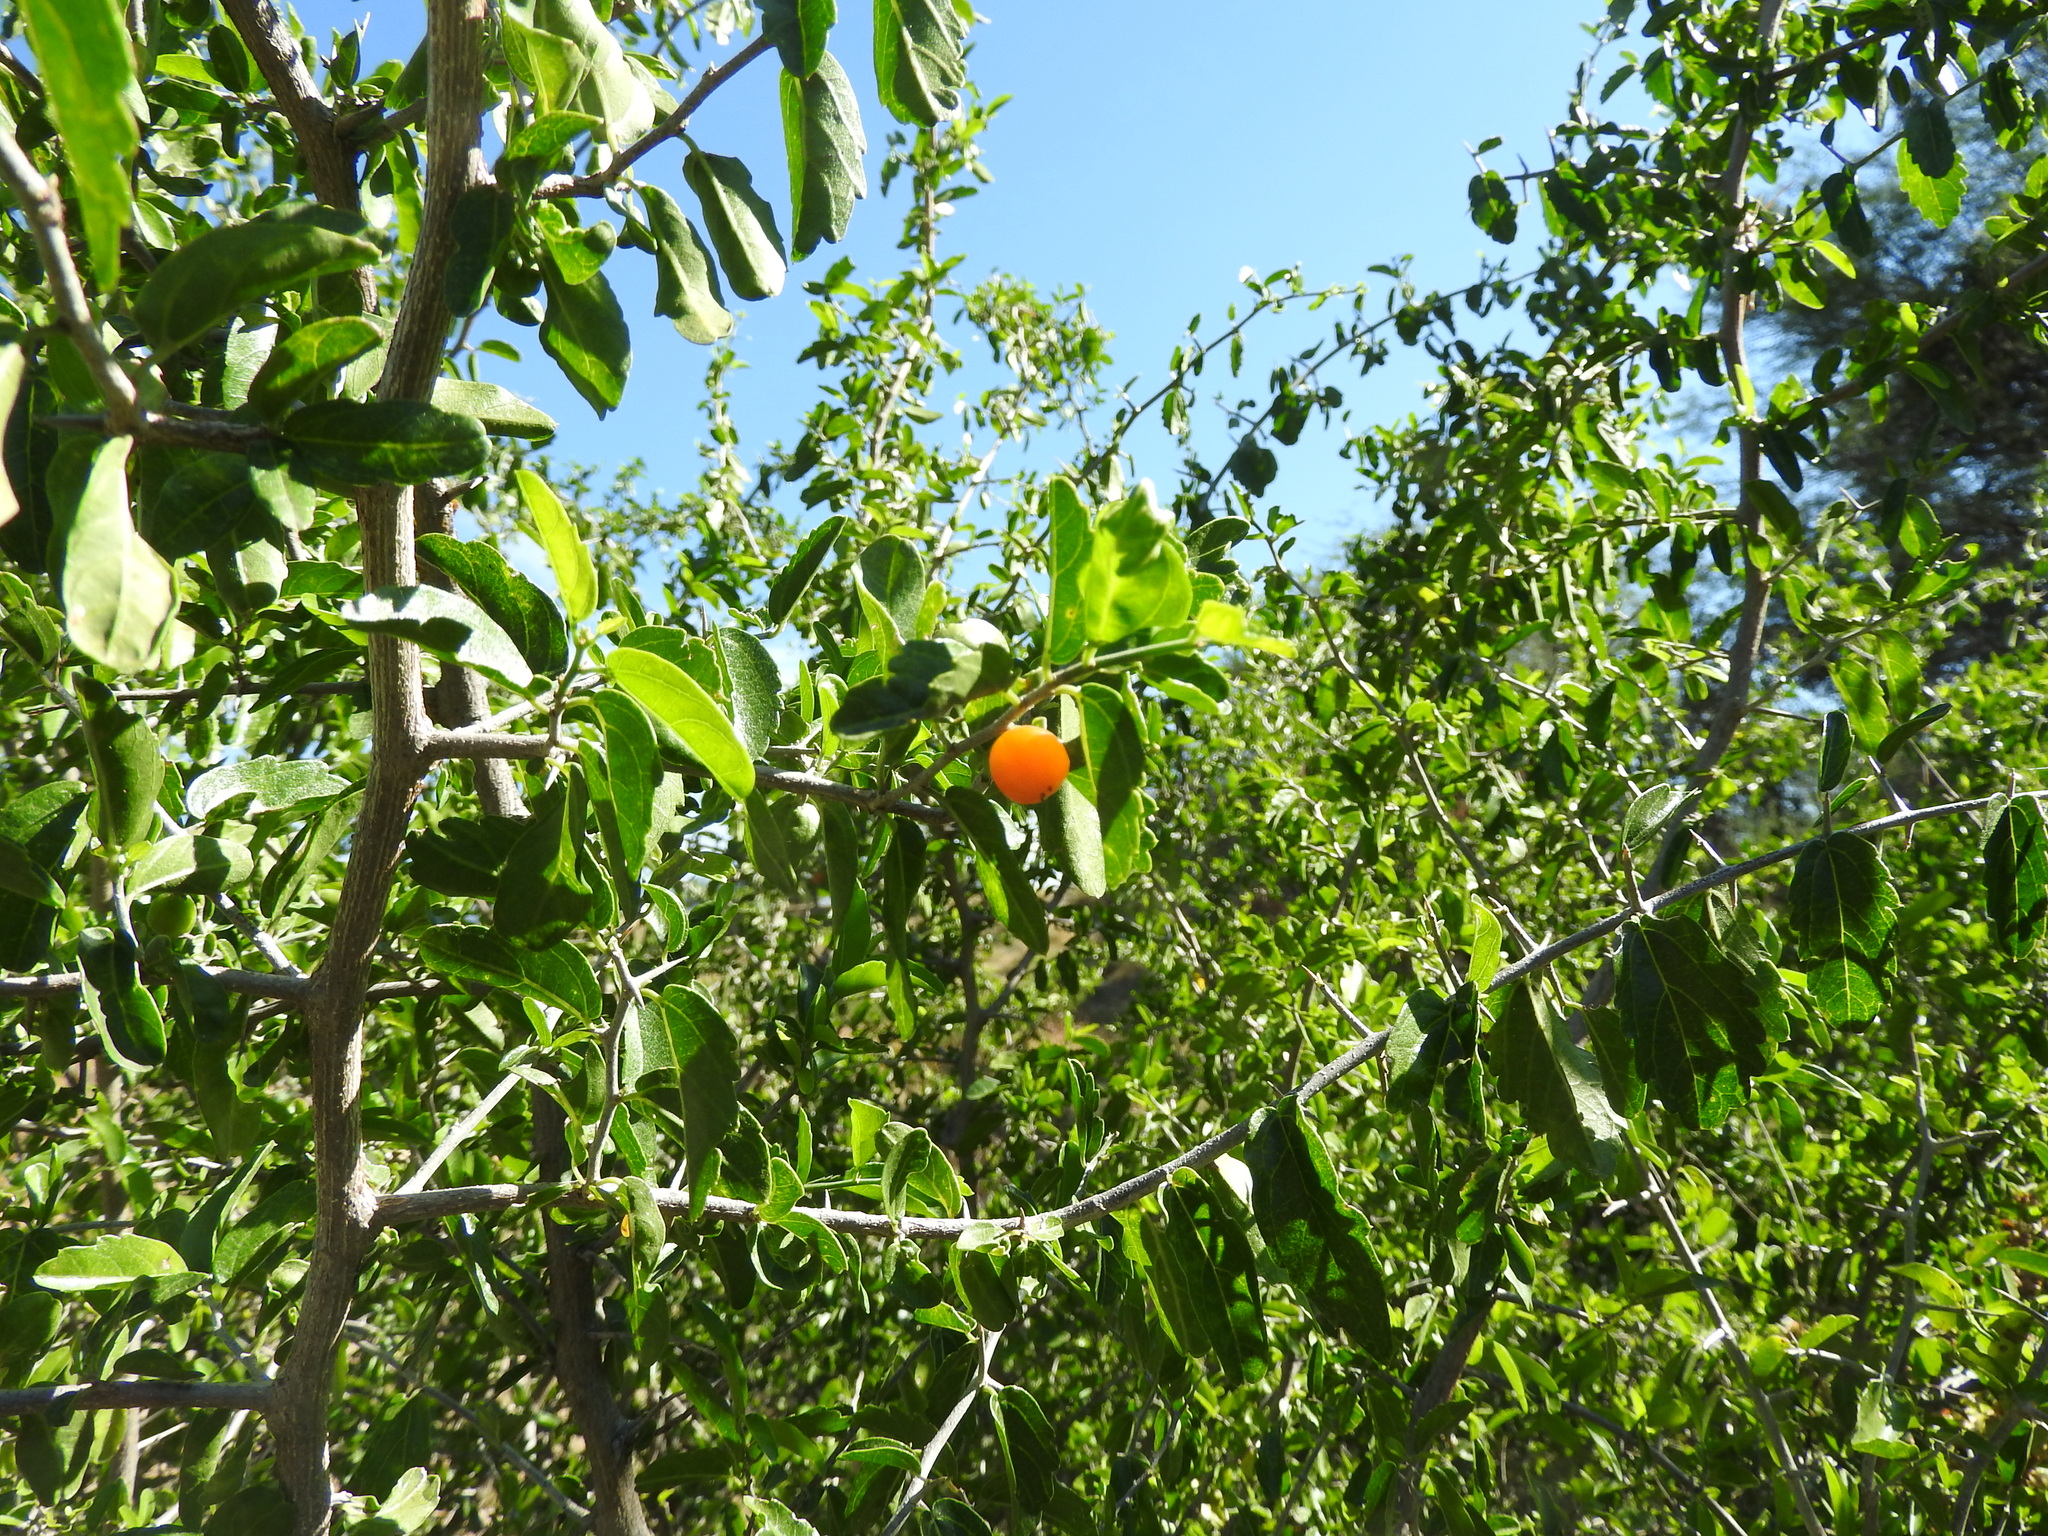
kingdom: Plantae
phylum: Tracheophyta
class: Magnoliopsida
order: Rosales
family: Cannabaceae
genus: Celtis
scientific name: Celtis pallida
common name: Desert hackberry
